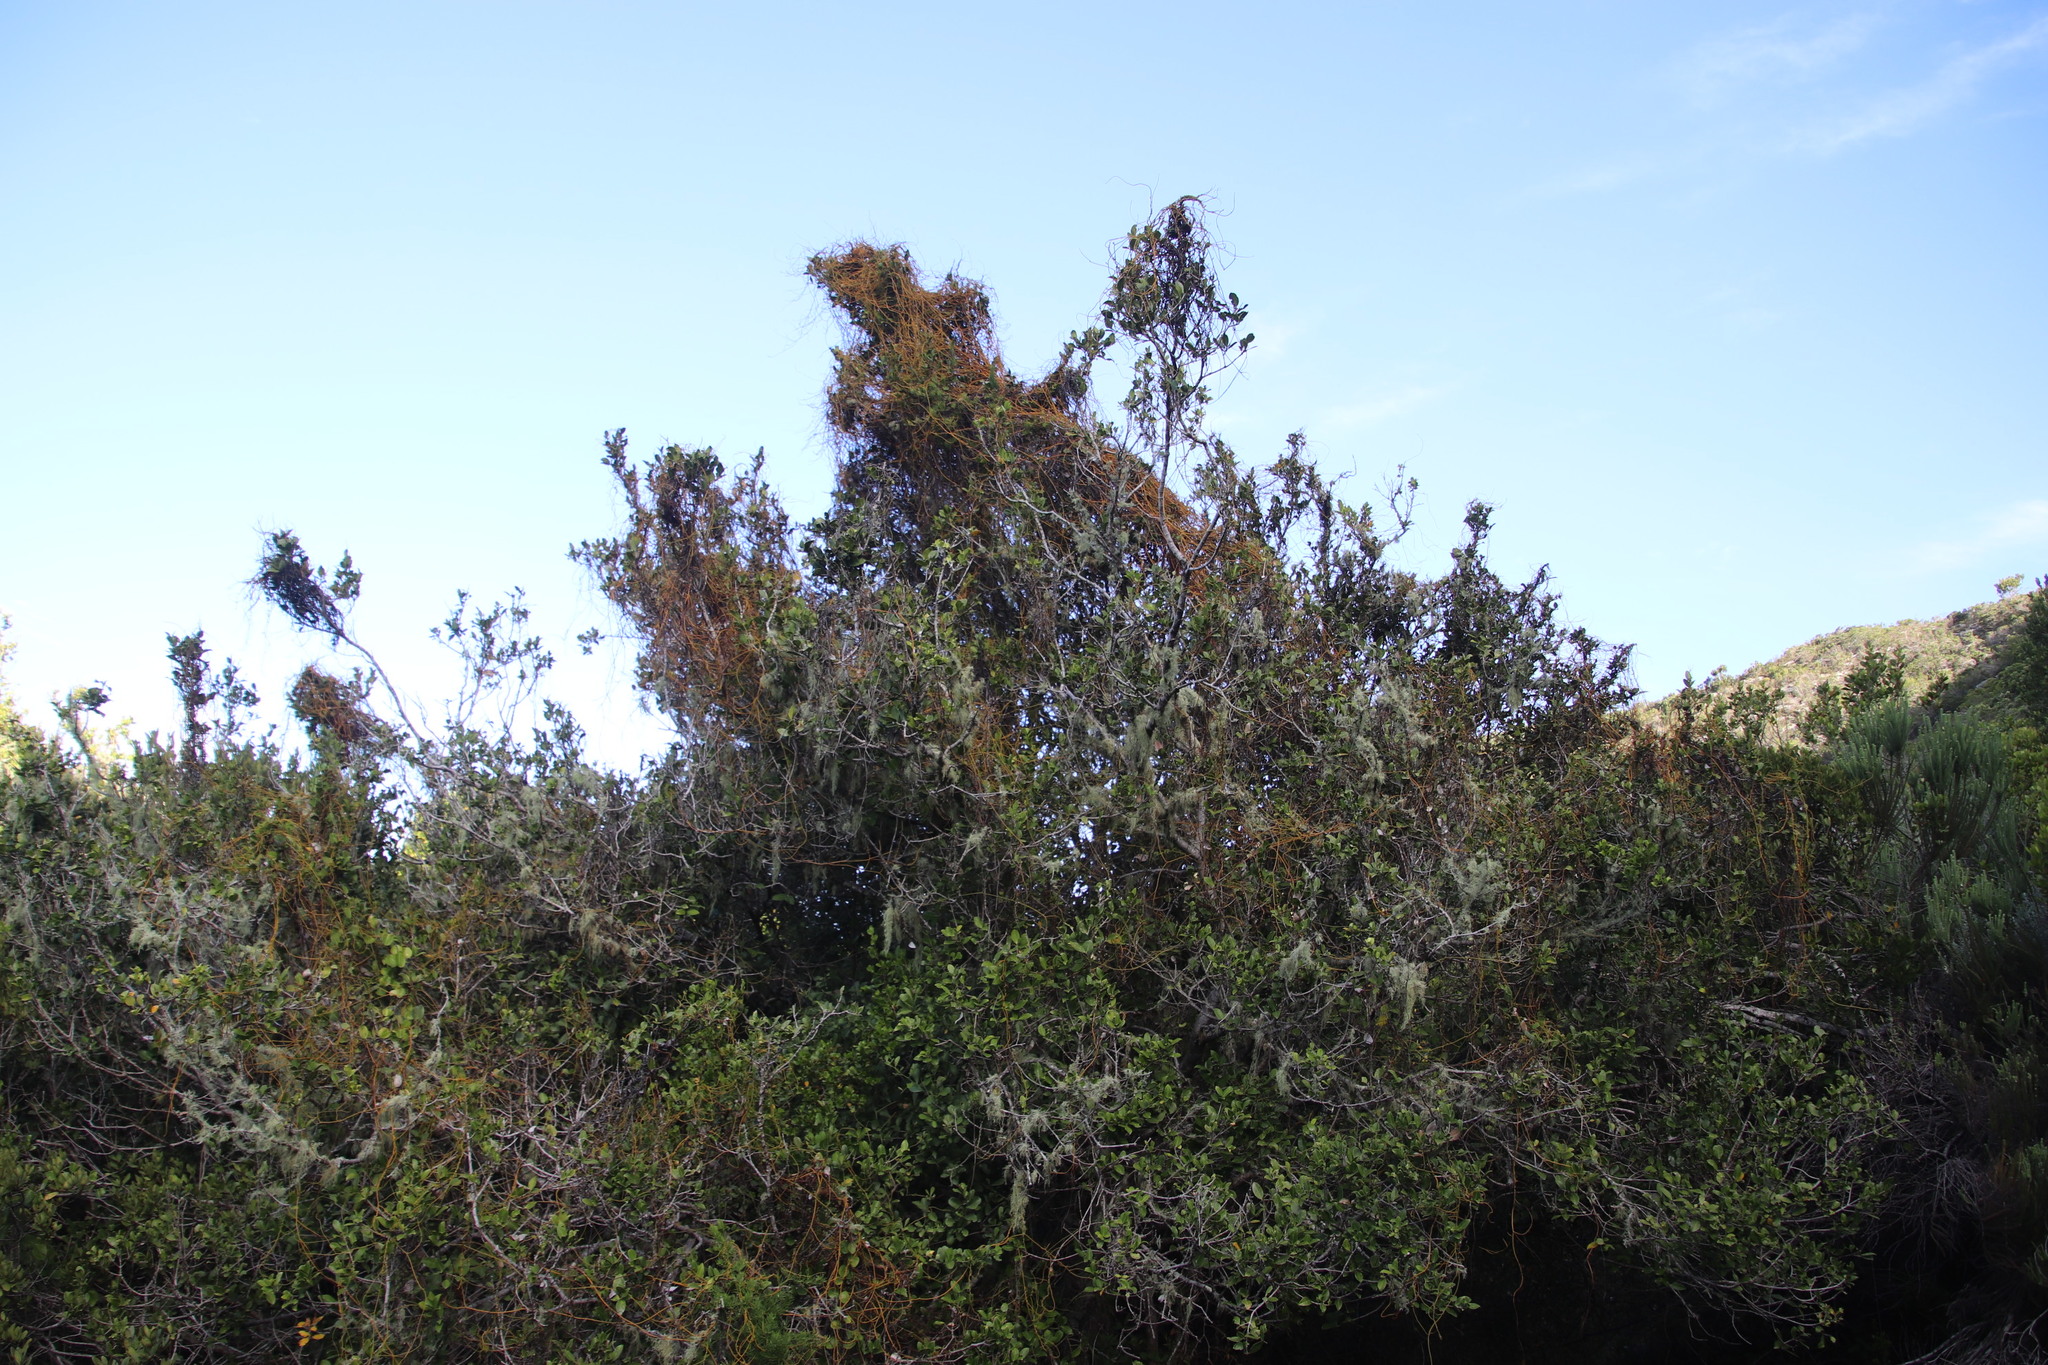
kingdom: Plantae
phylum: Tracheophyta
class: Magnoliopsida
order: Laurales
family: Lauraceae
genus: Cassytha
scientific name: Cassytha ciliolata
